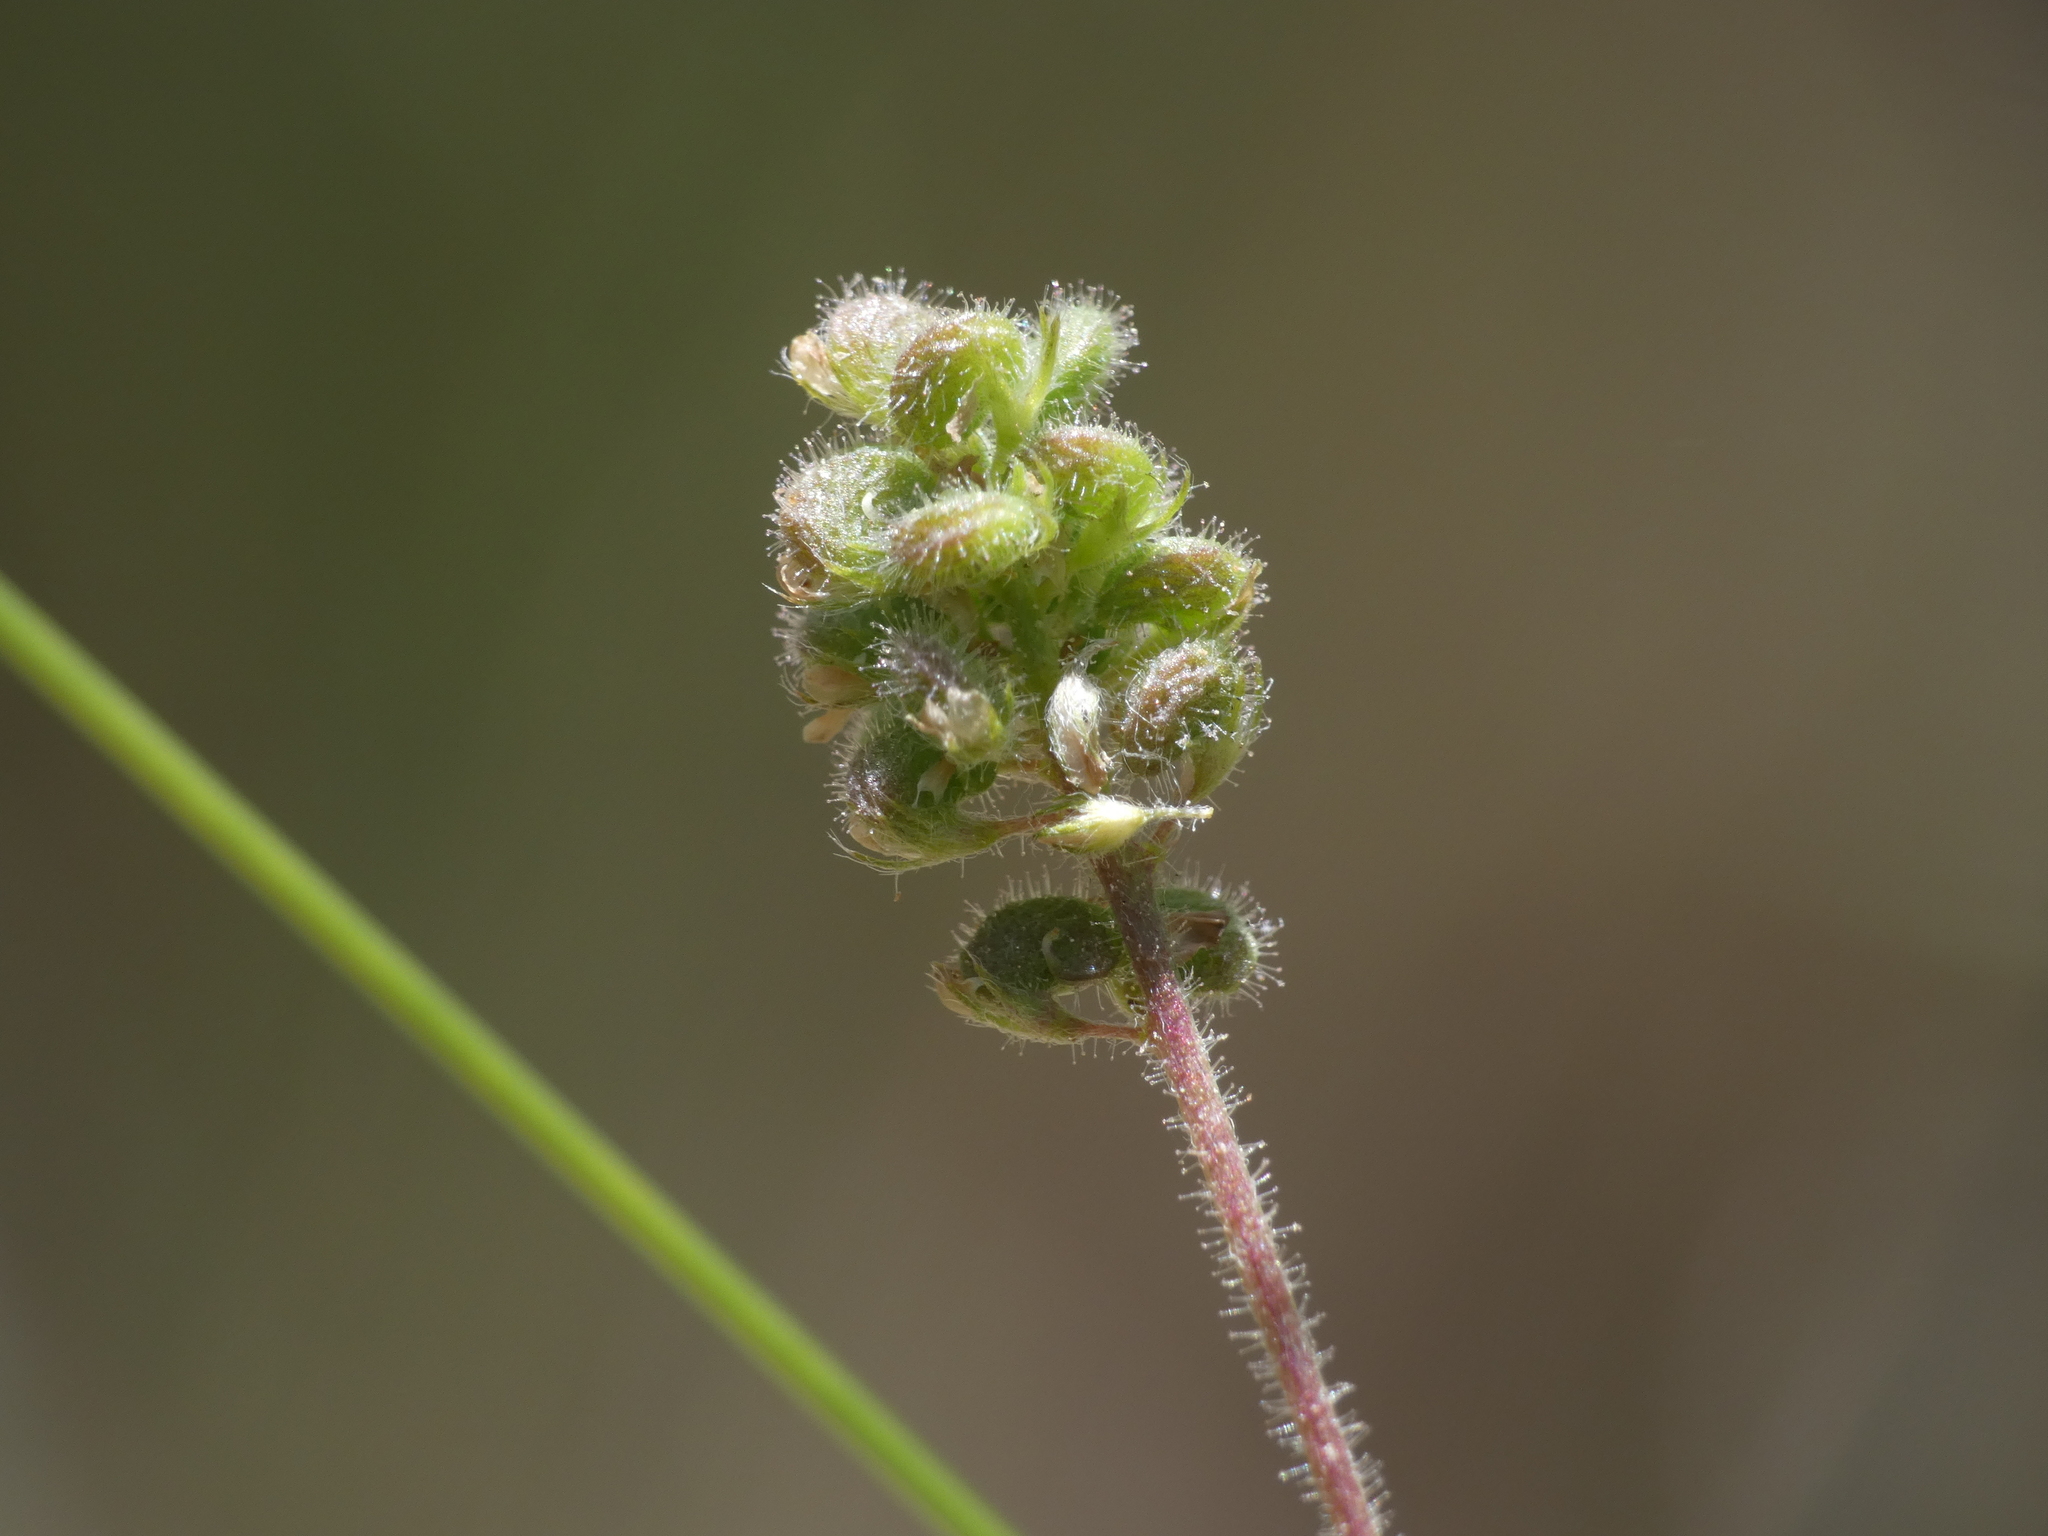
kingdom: Plantae
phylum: Tracheophyta
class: Magnoliopsida
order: Fabales
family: Fabaceae
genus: Medicago
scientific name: Medicago lupulina
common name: Black medick
